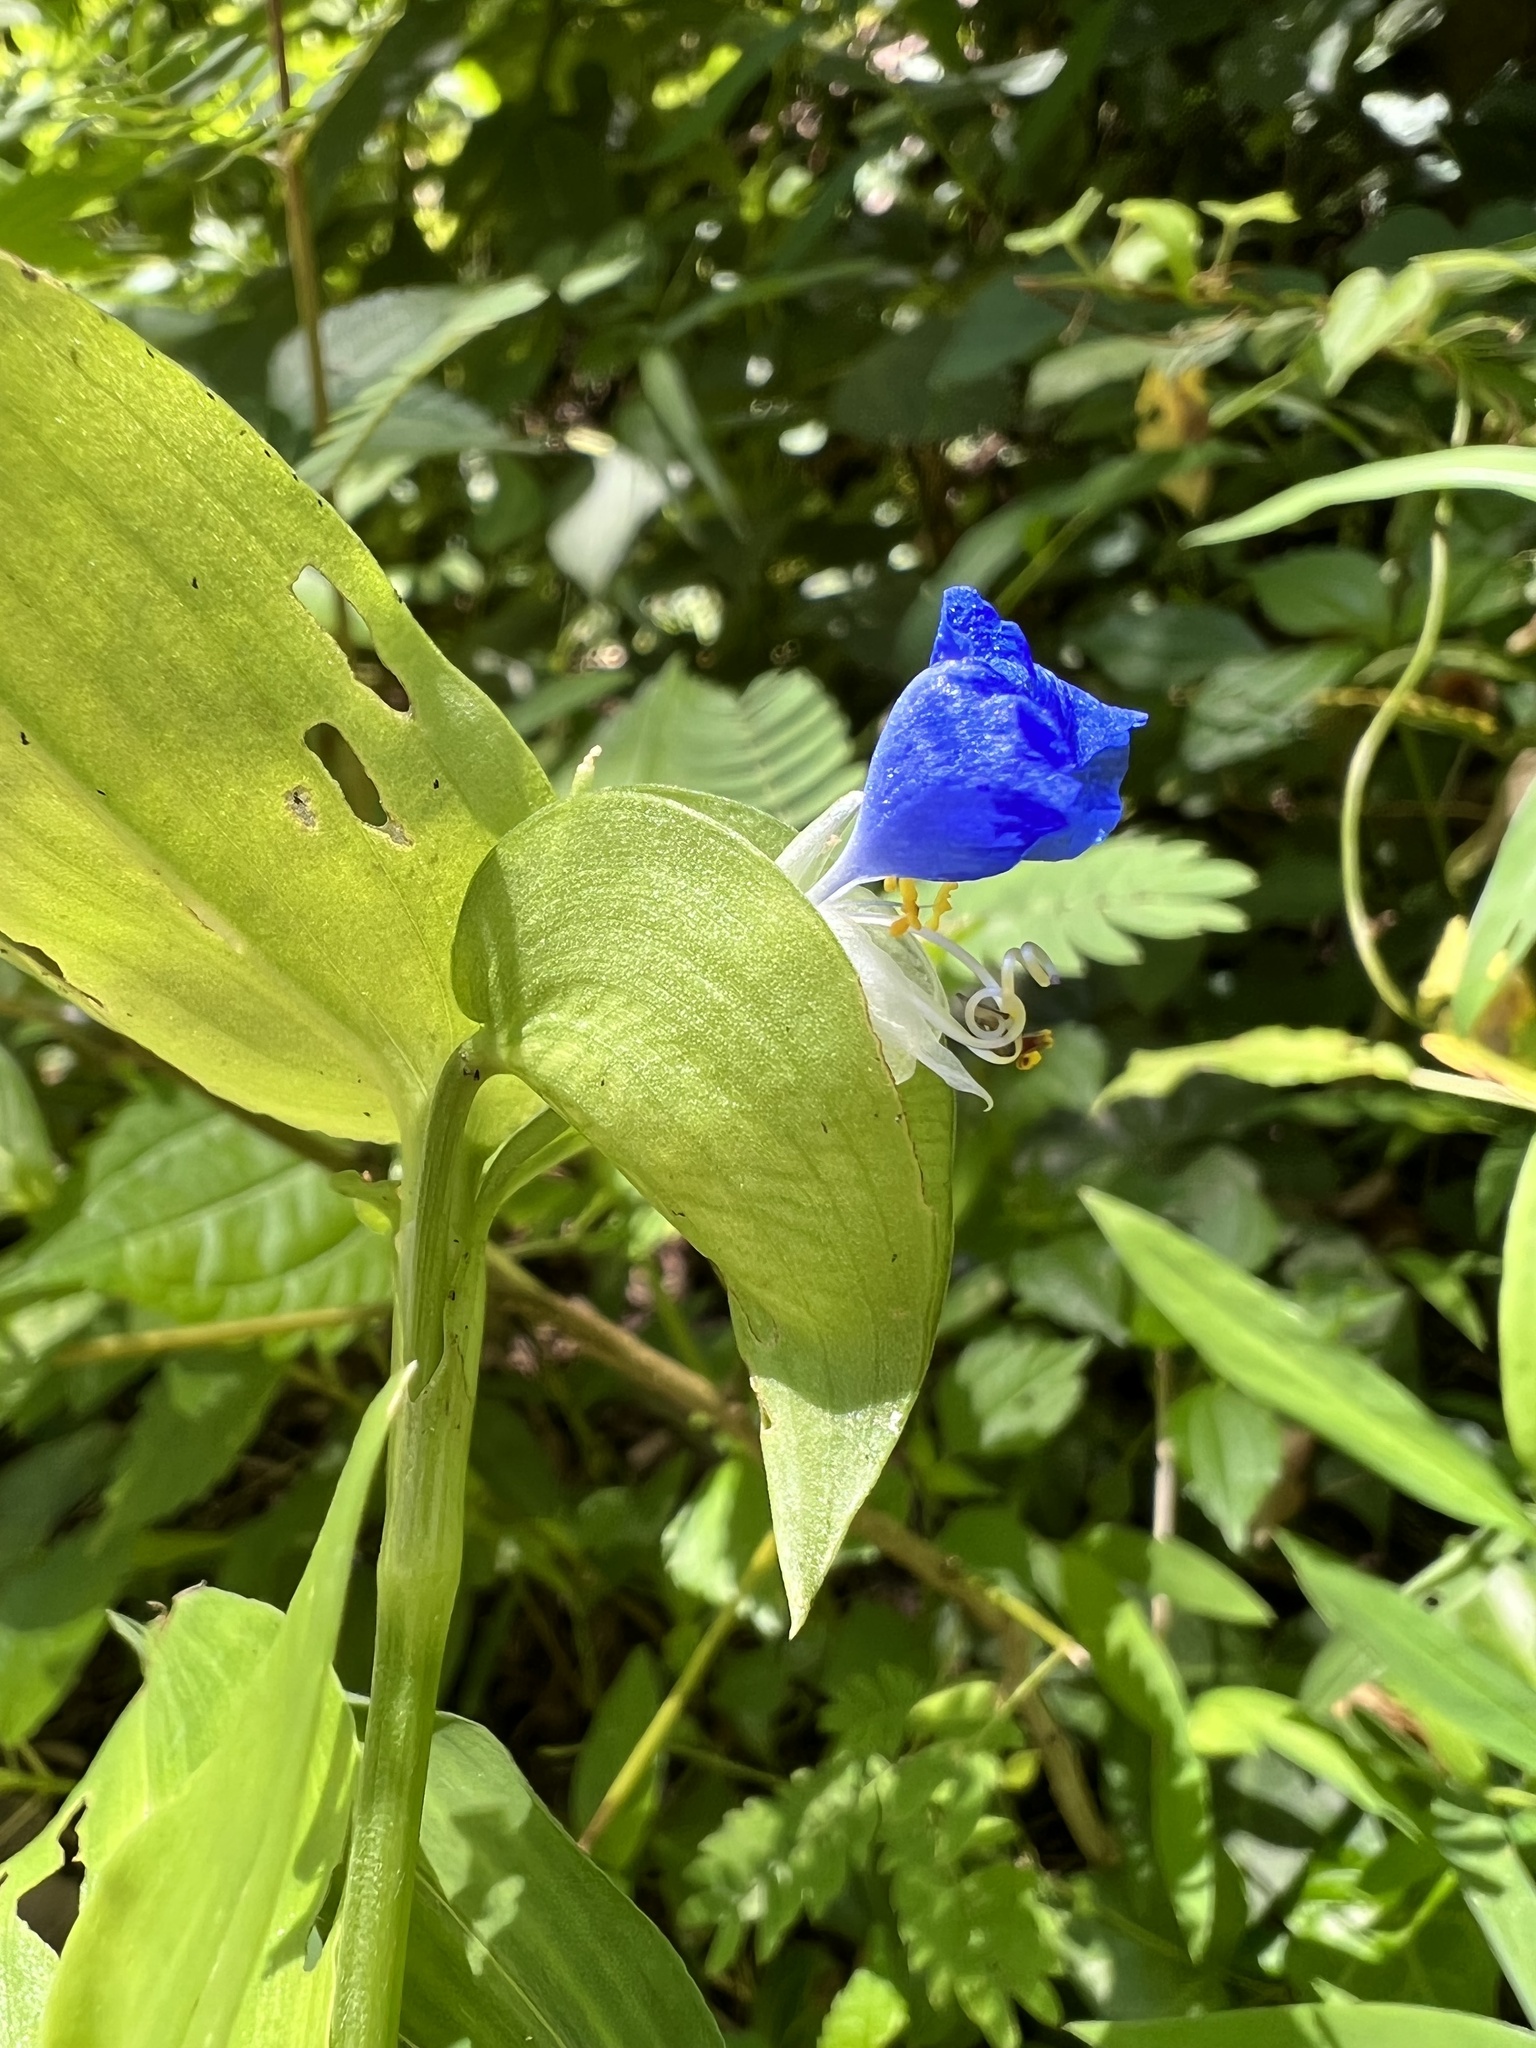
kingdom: Plantae
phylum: Tracheophyta
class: Liliopsida
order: Commelinales
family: Commelinaceae
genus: Commelina
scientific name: Commelina communis
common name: Asiatic dayflower
